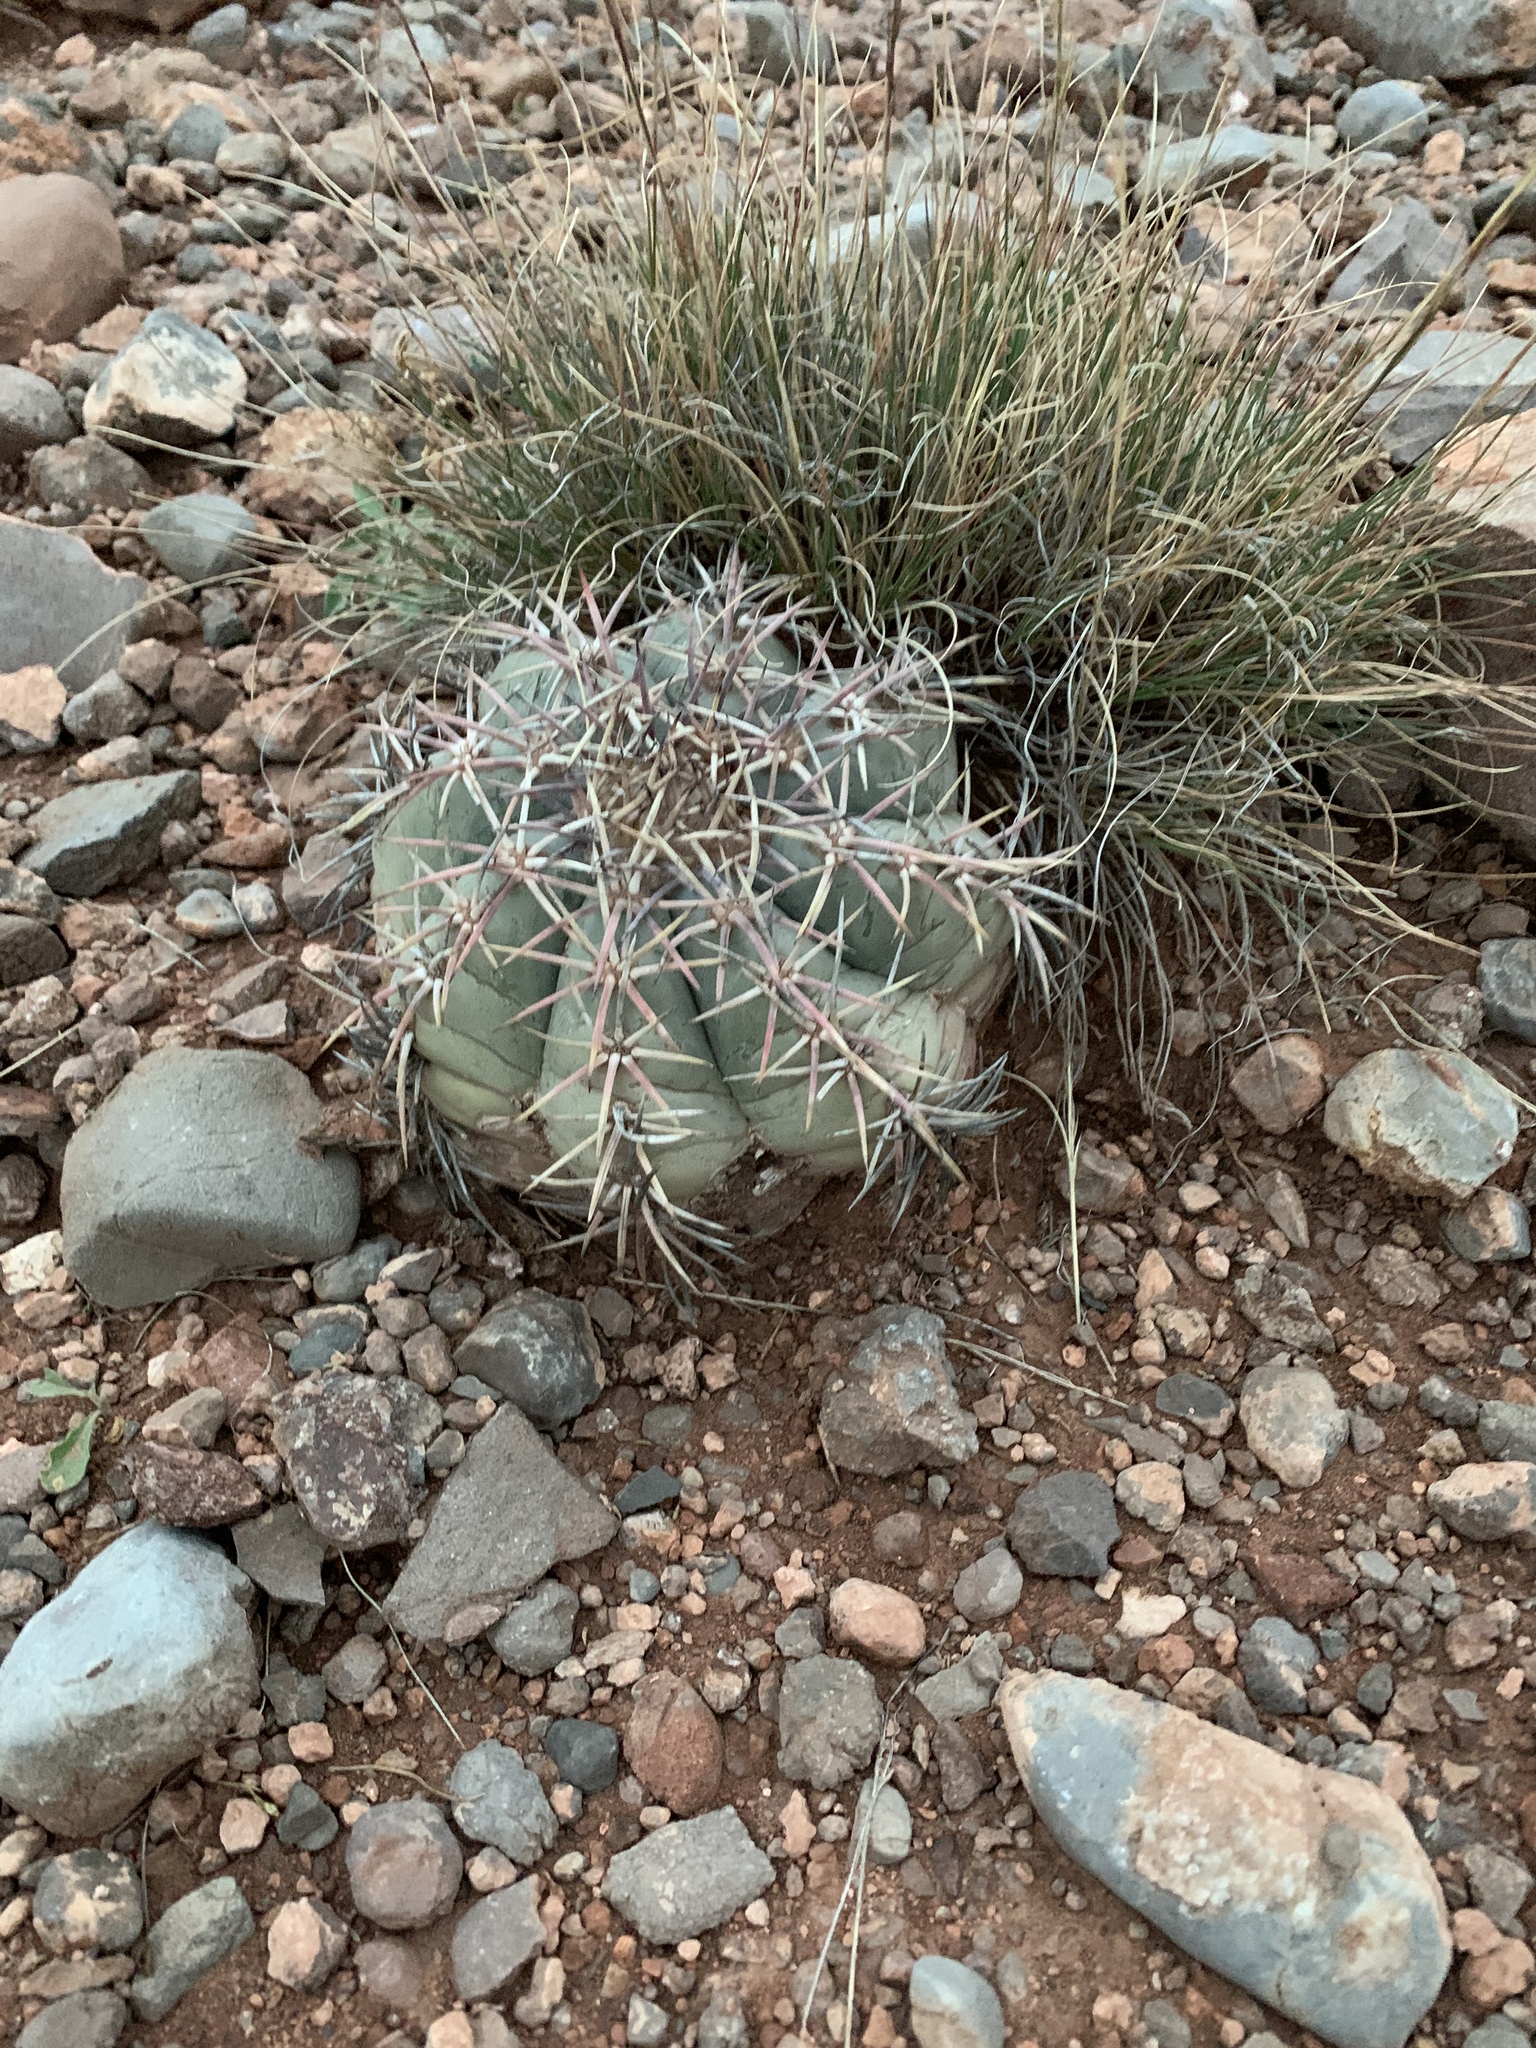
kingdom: Plantae
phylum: Tracheophyta
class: Magnoliopsida
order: Caryophyllales
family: Cactaceae
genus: Echinocactus
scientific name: Echinocactus horizonthalonius
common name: Devilshead
